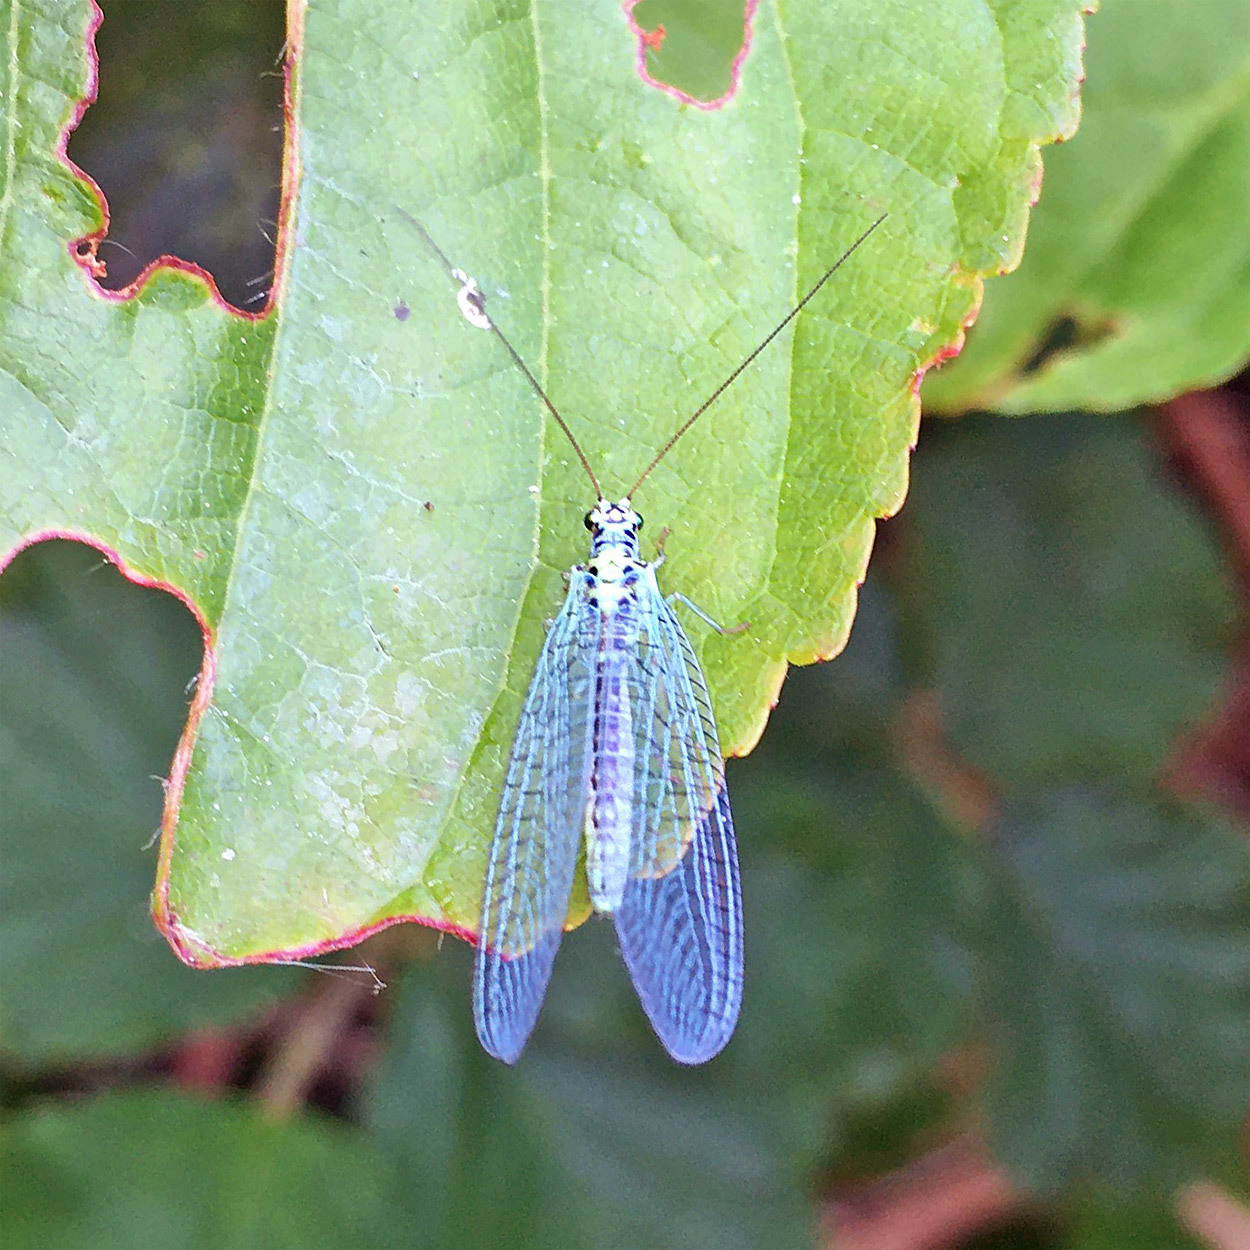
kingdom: Animalia
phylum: Arthropoda
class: Insecta
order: Neuroptera
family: Chrysopidae
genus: Chrysopa
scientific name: Chrysopa perla
